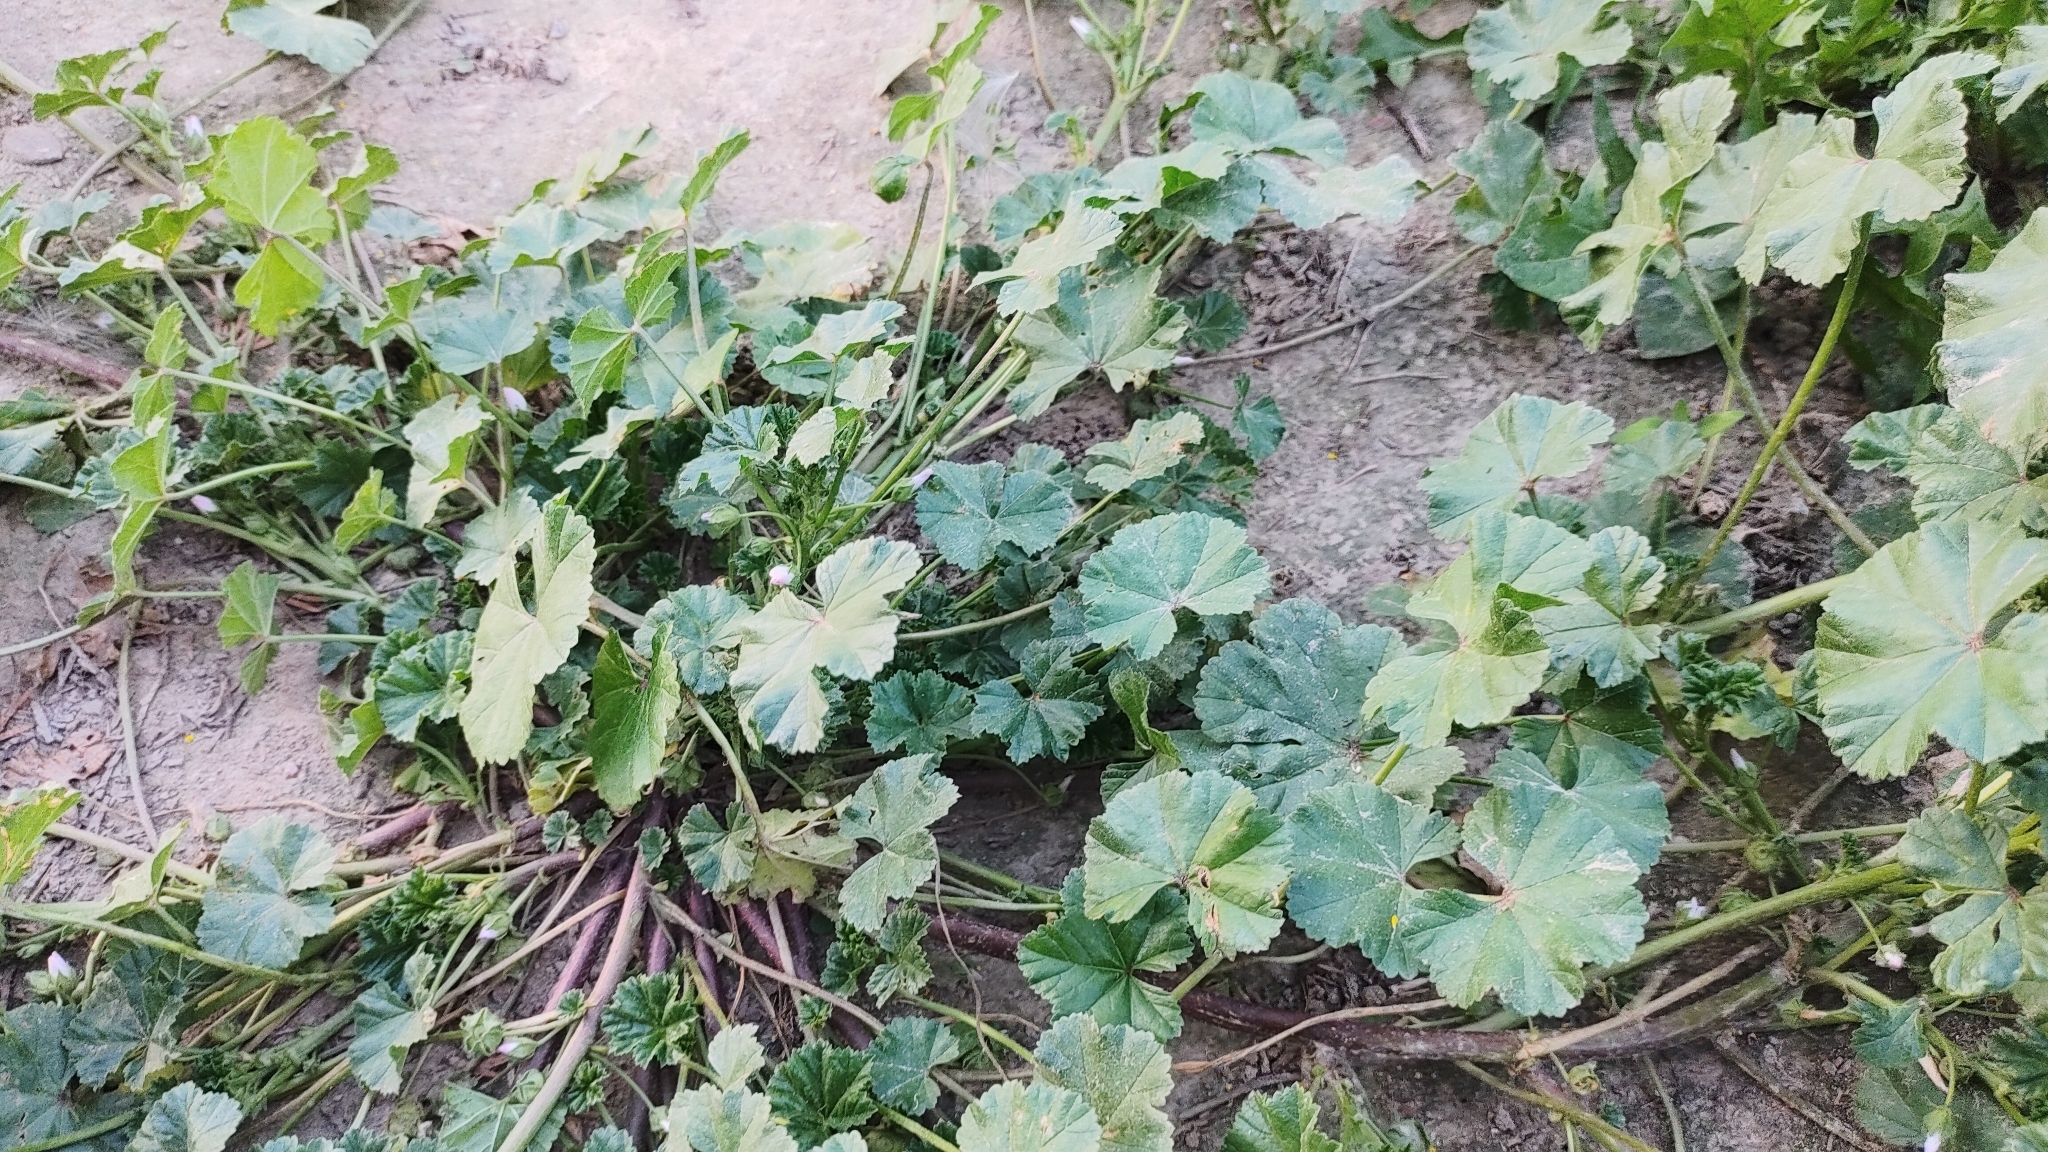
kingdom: Plantae
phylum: Tracheophyta
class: Magnoliopsida
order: Malvales
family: Malvaceae
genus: Malva
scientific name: Malva neglecta
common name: Common mallow
